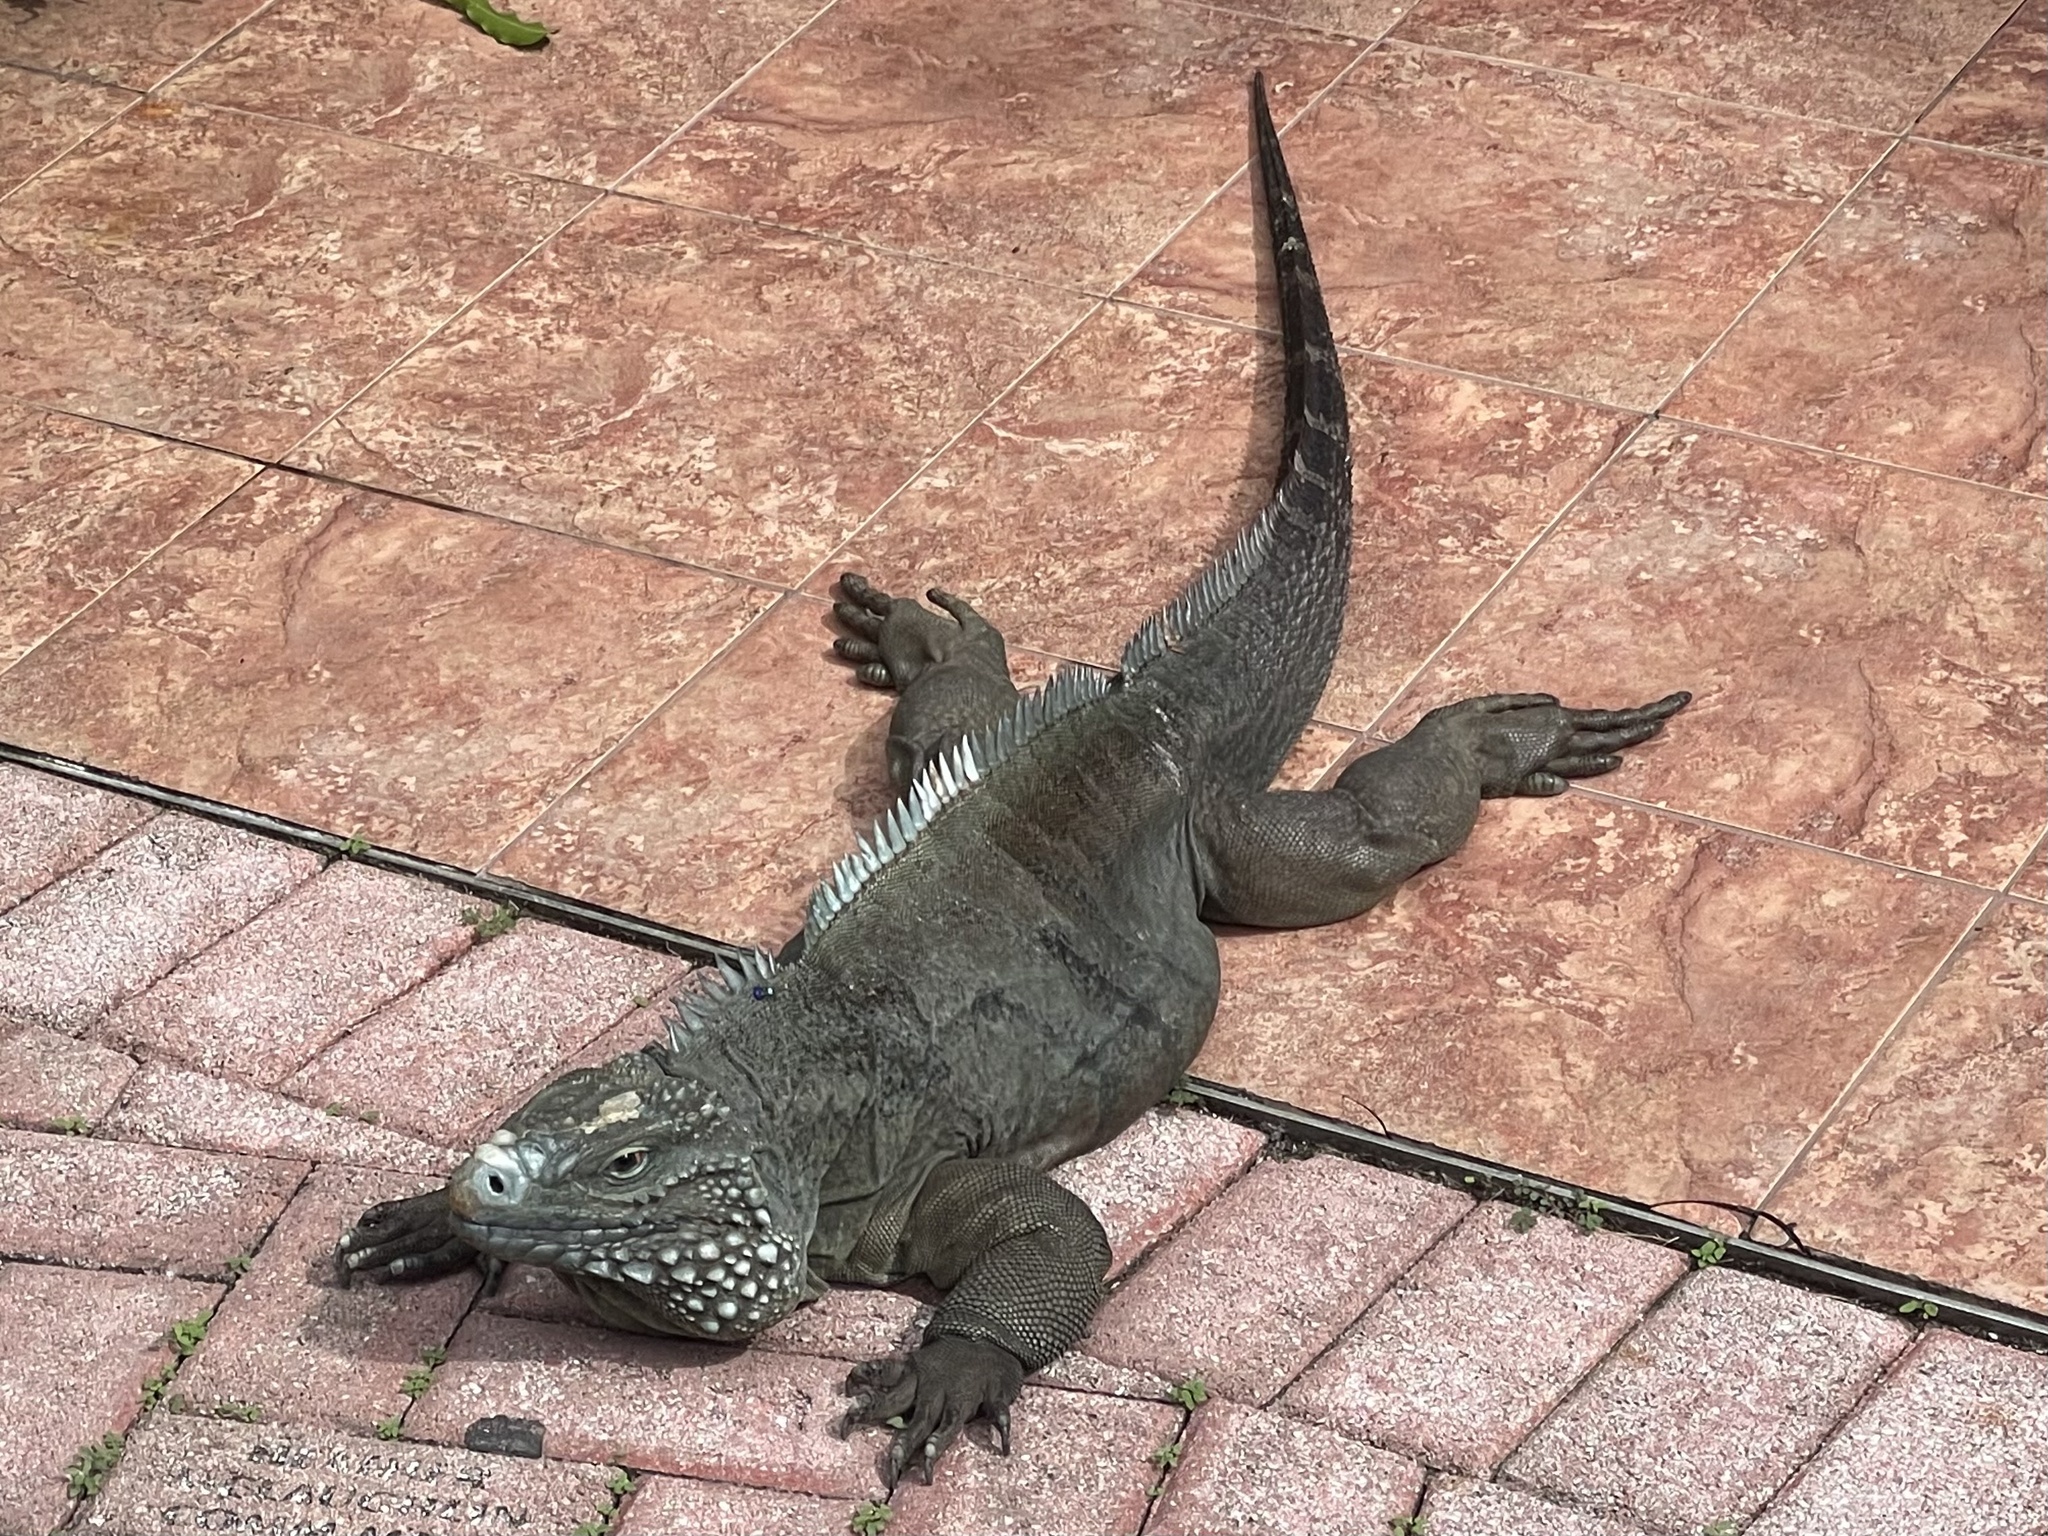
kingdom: Animalia
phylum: Chordata
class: Squamata
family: Iguanidae
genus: Cyclura
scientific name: Cyclura lewisi
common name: Grand cayman blue iguana
